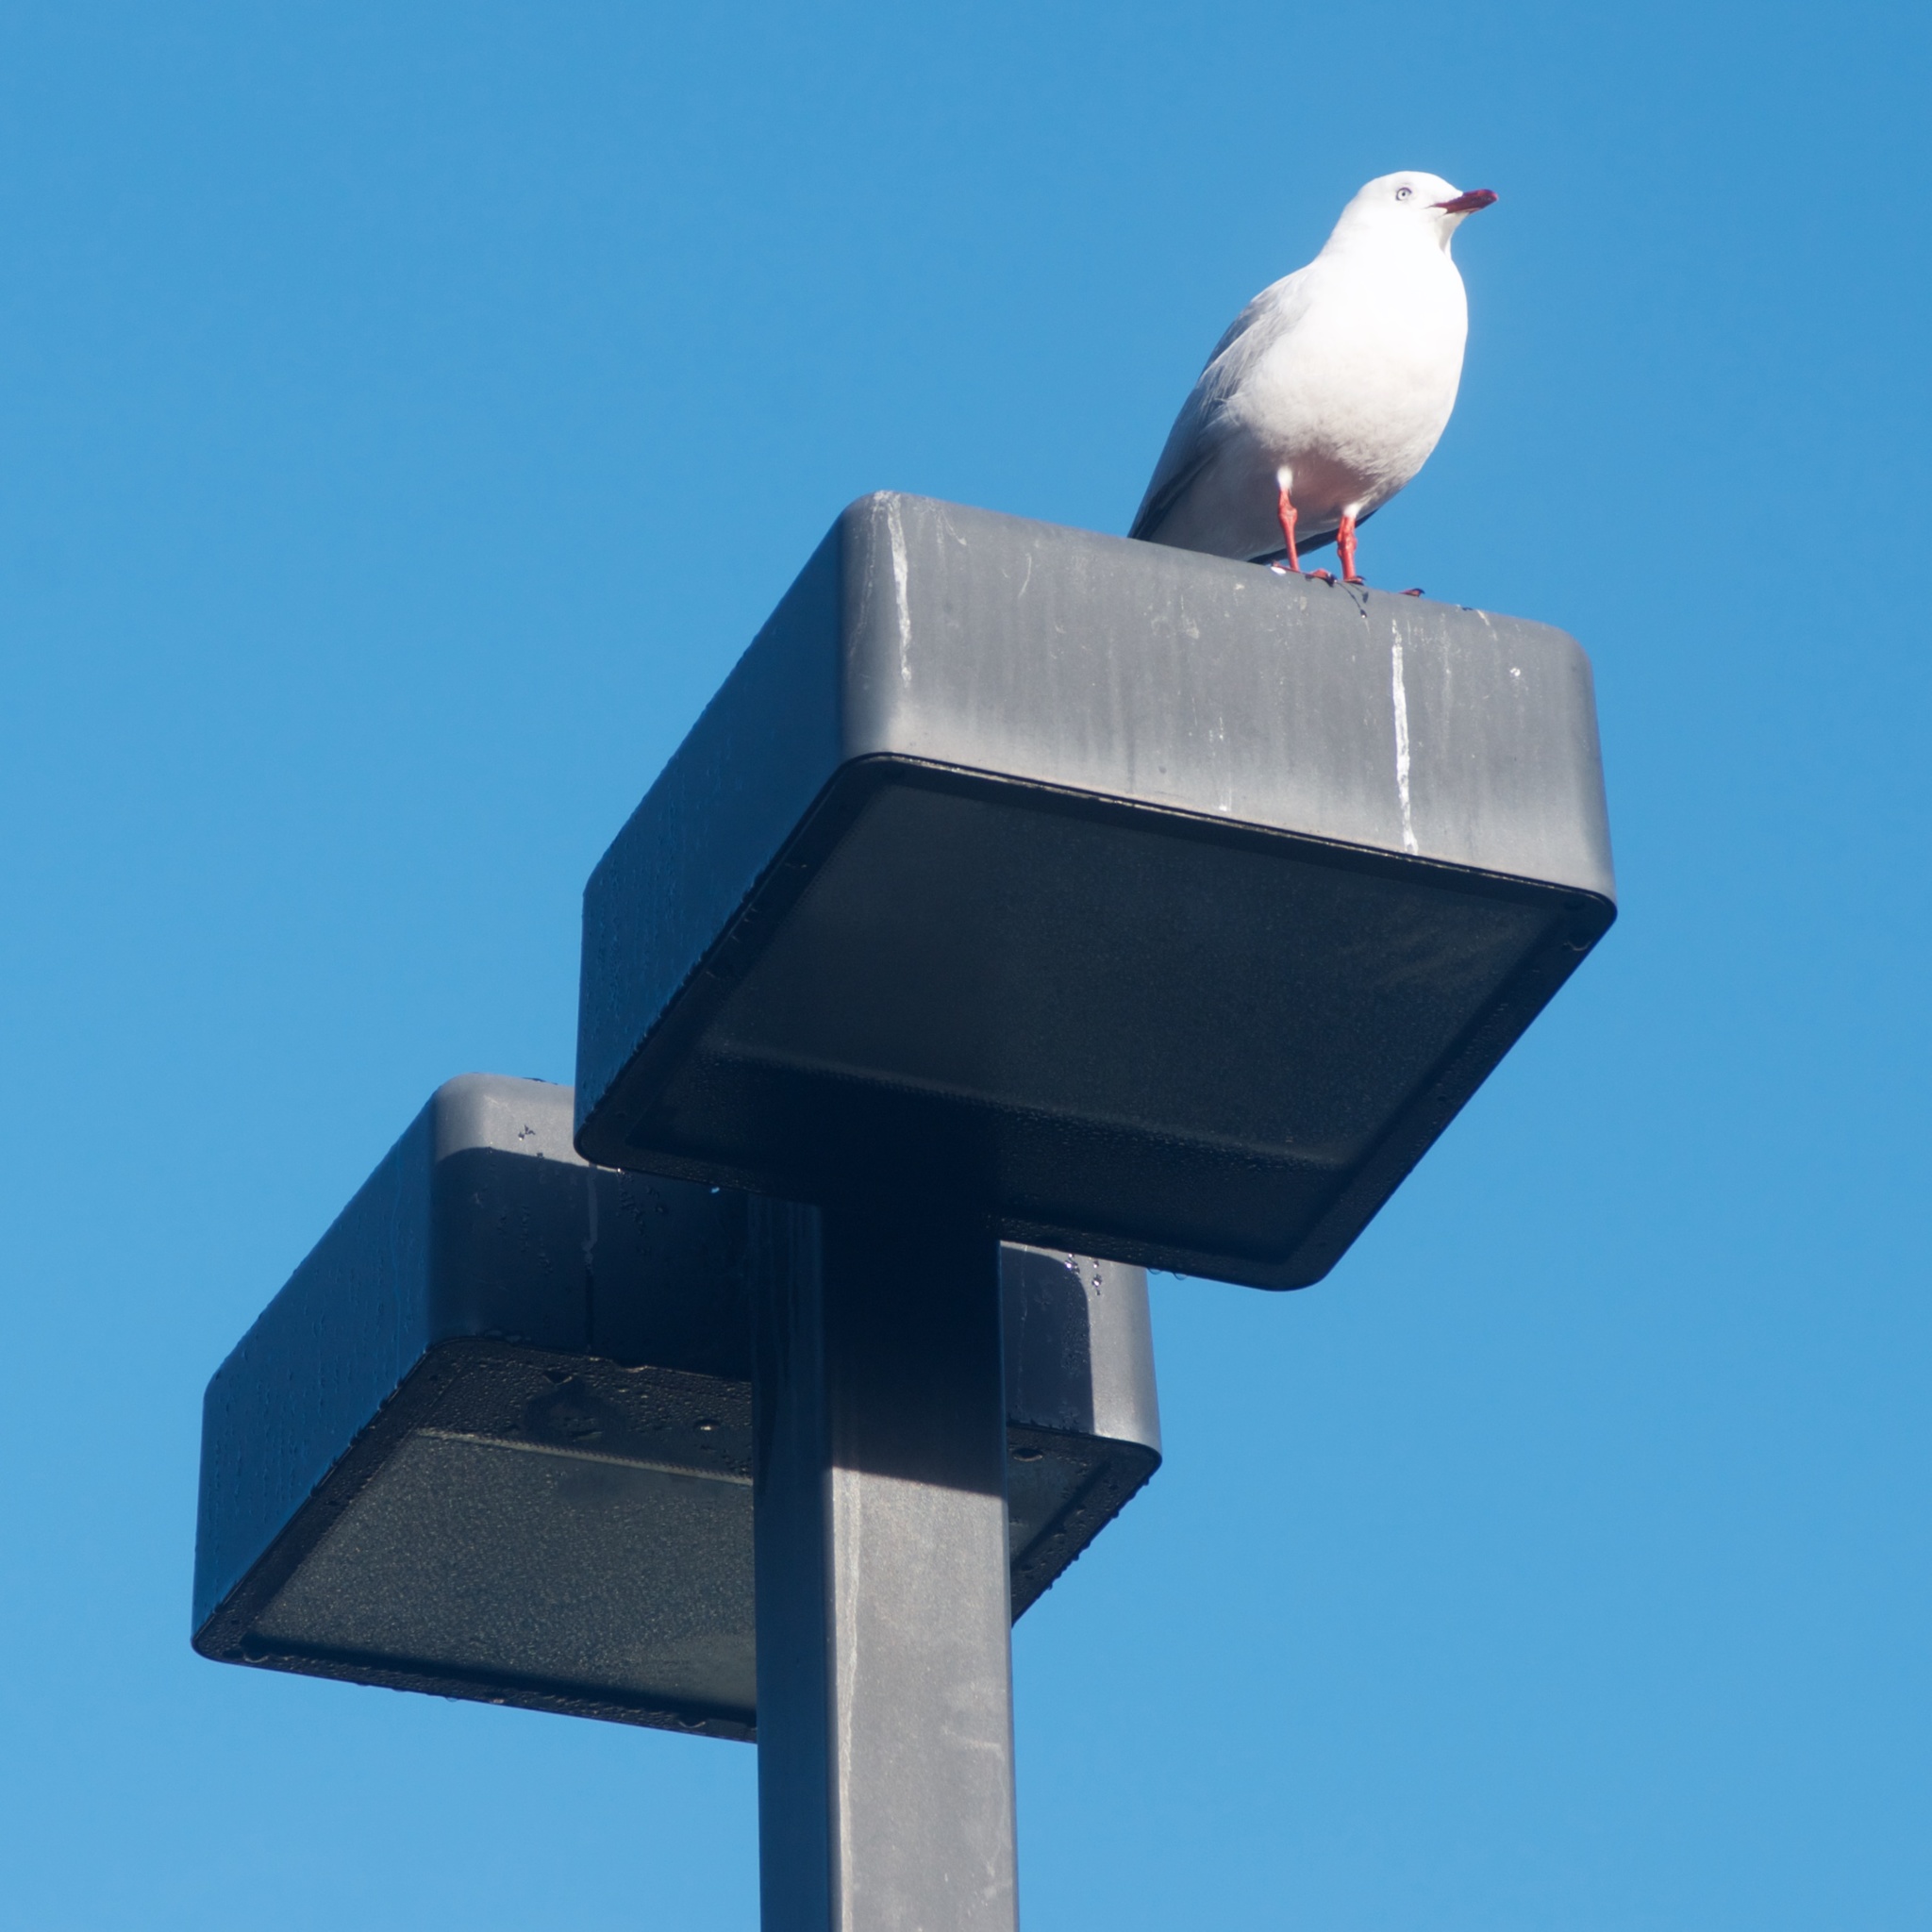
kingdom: Animalia
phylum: Chordata
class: Aves
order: Charadriiformes
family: Laridae
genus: Chroicocephalus
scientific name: Chroicocephalus novaehollandiae
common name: Silver gull
